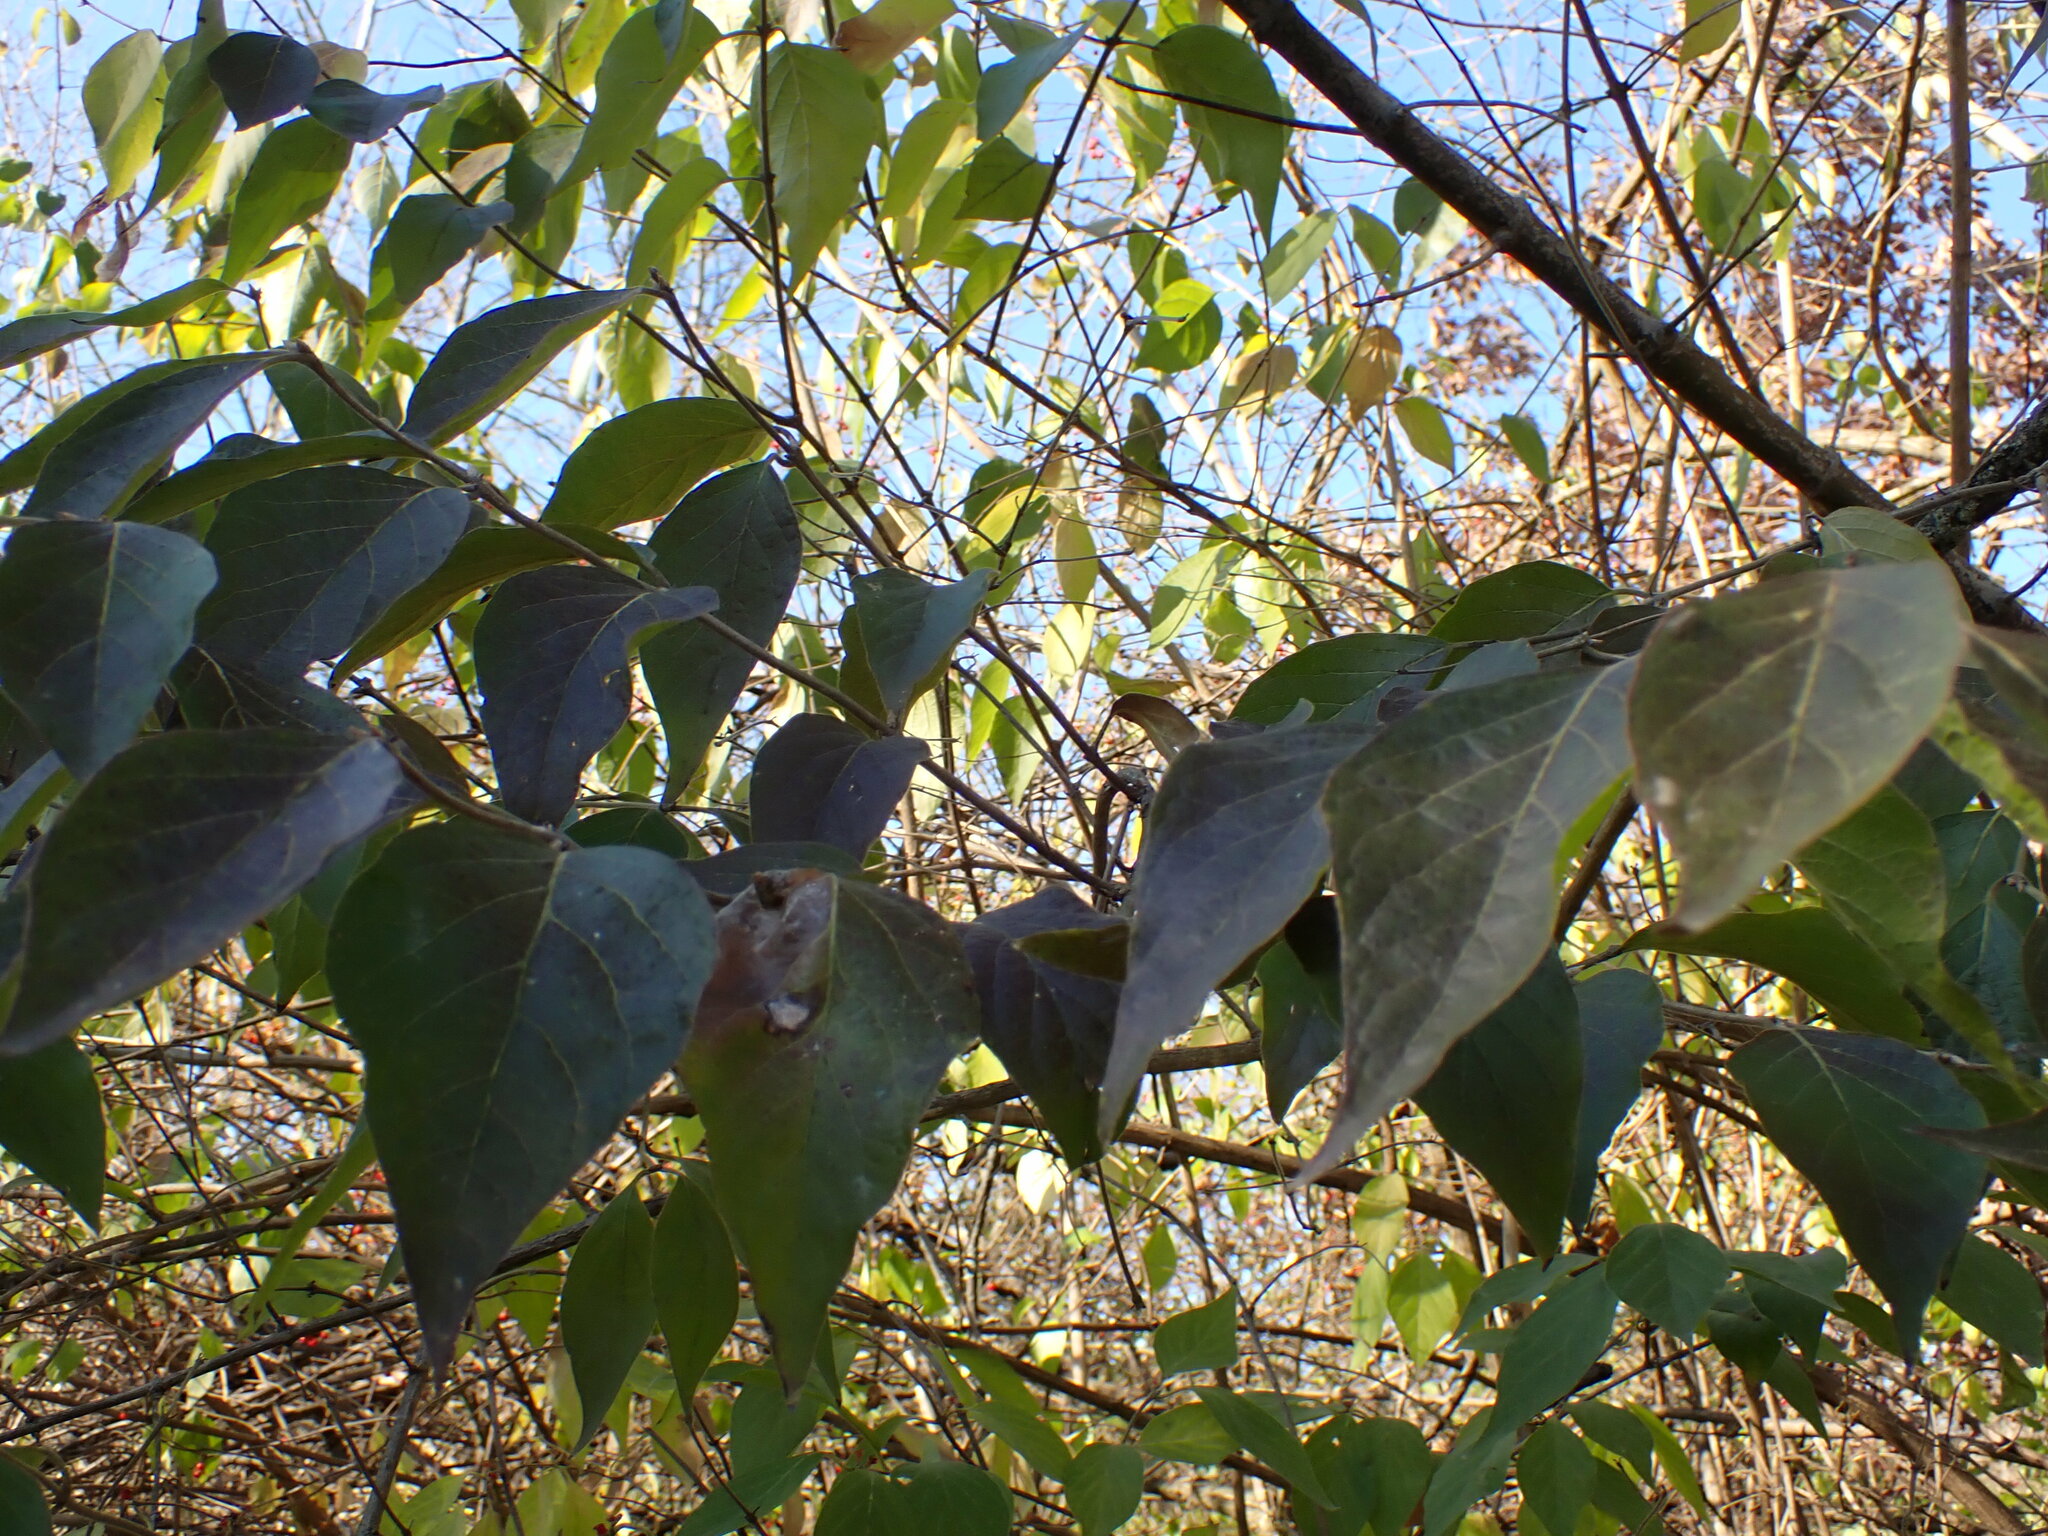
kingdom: Plantae
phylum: Tracheophyta
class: Magnoliopsida
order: Dipsacales
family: Caprifoliaceae
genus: Lonicera
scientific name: Lonicera maackii
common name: Amur honeysuckle
